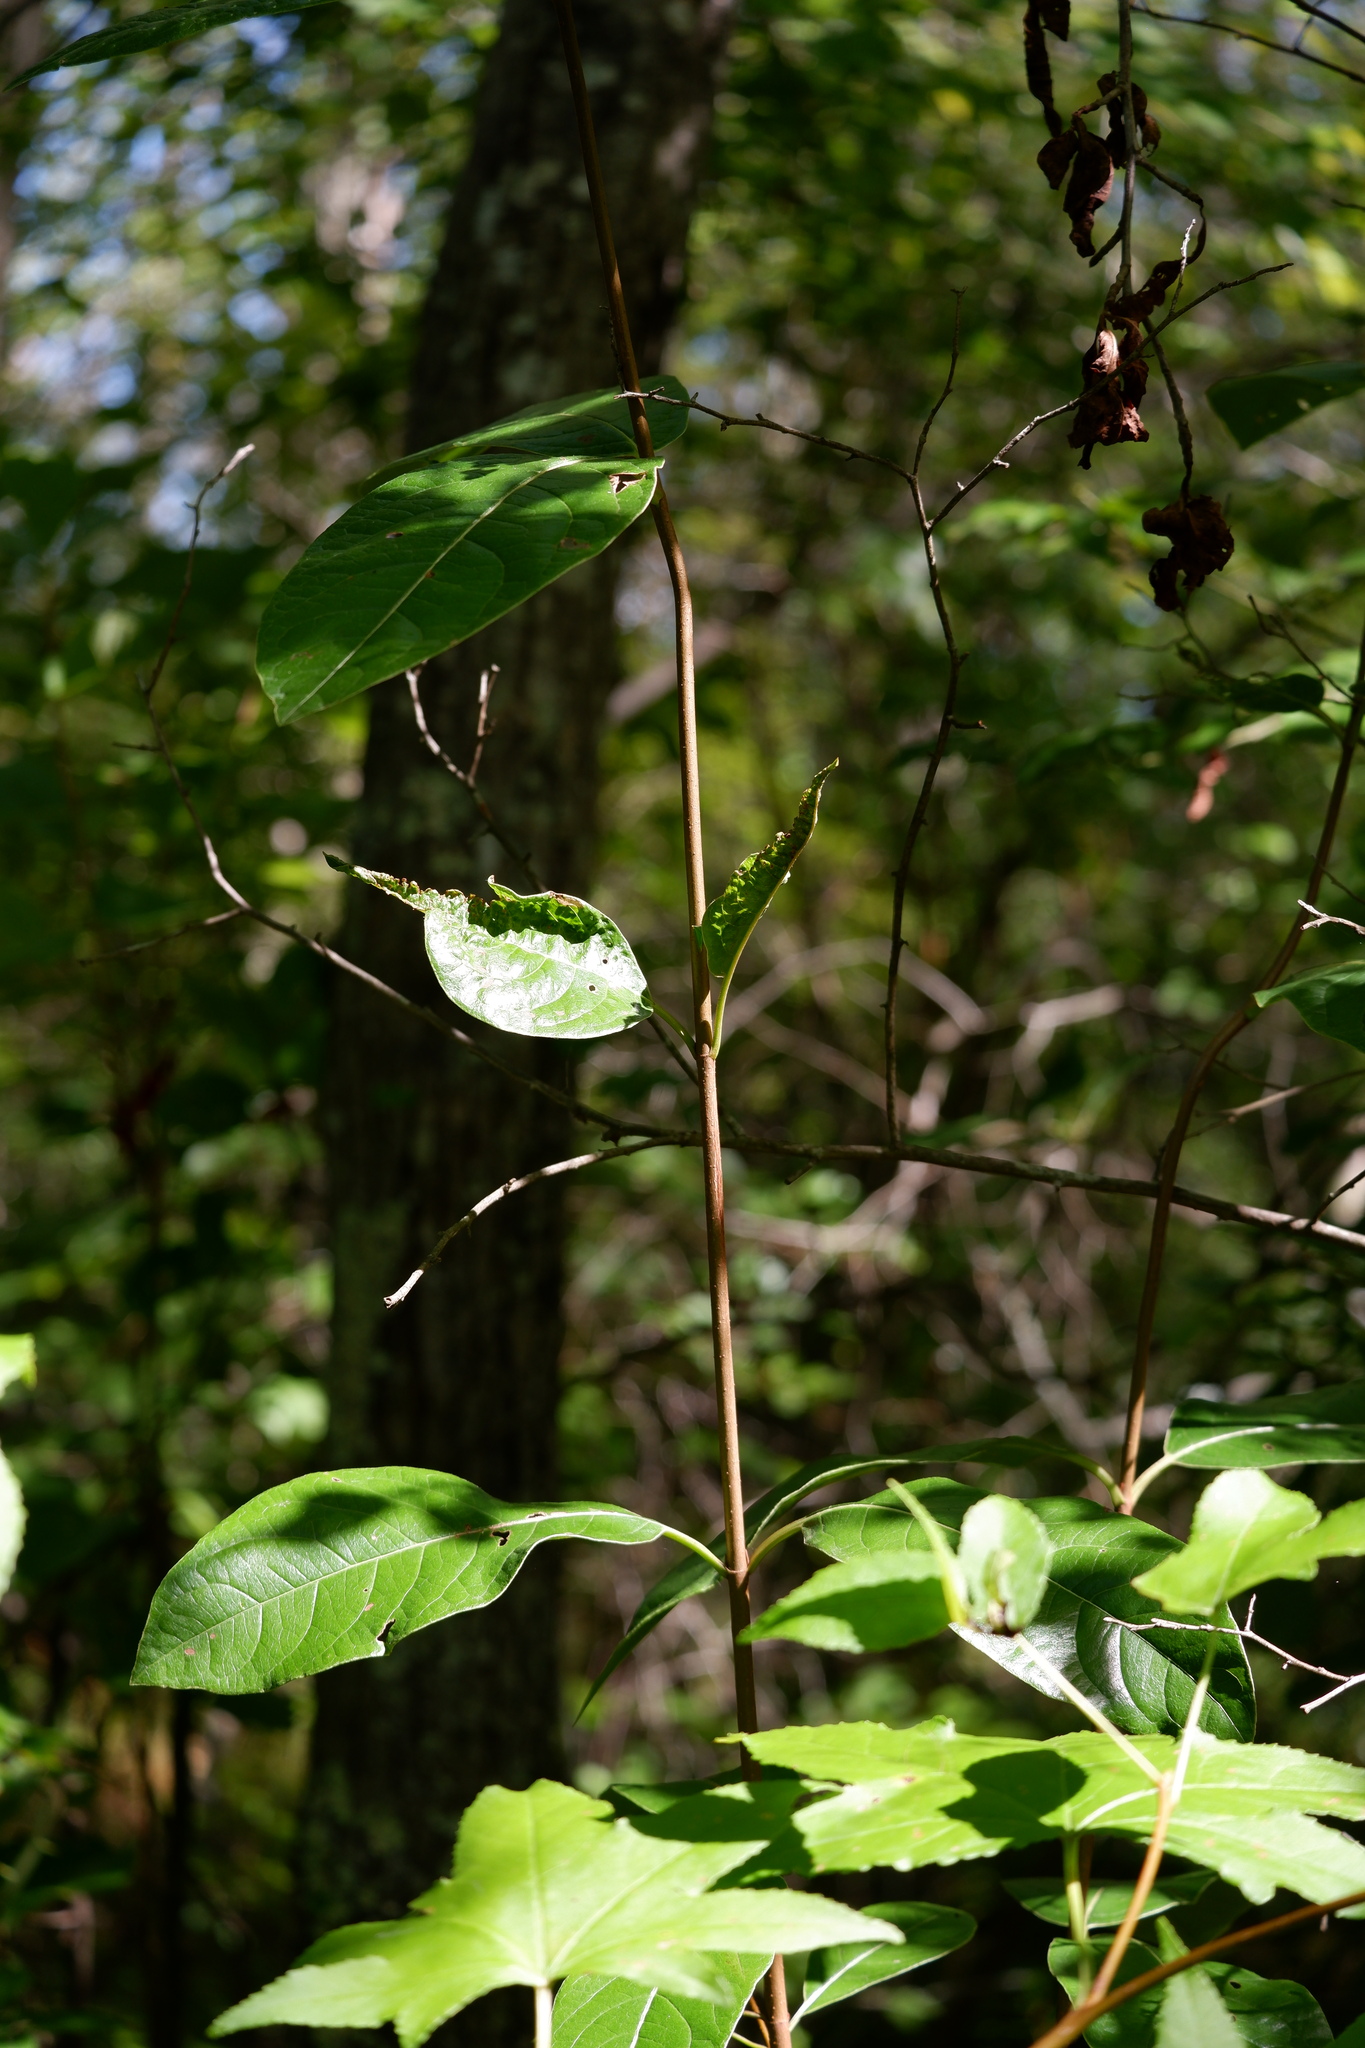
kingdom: Plantae
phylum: Tracheophyta
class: Magnoliopsida
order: Dipsacales
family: Viburnaceae
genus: Viburnum
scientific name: Viburnum nudum
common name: Possum haw
